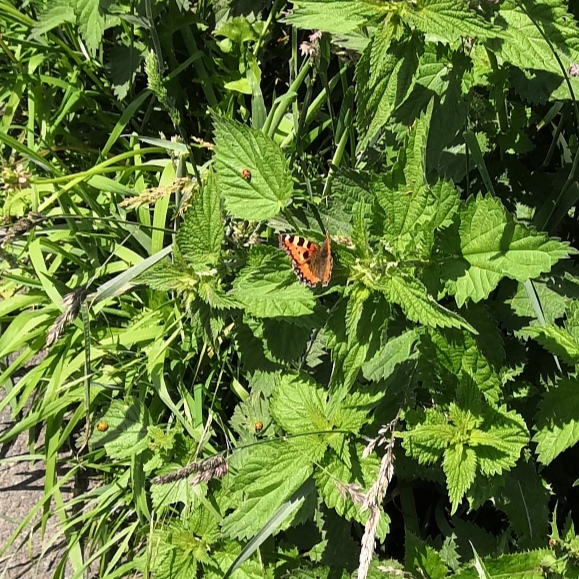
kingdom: Animalia
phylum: Arthropoda
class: Insecta
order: Lepidoptera
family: Nymphalidae
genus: Aglais
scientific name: Aglais urticae
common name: Small tortoiseshell
